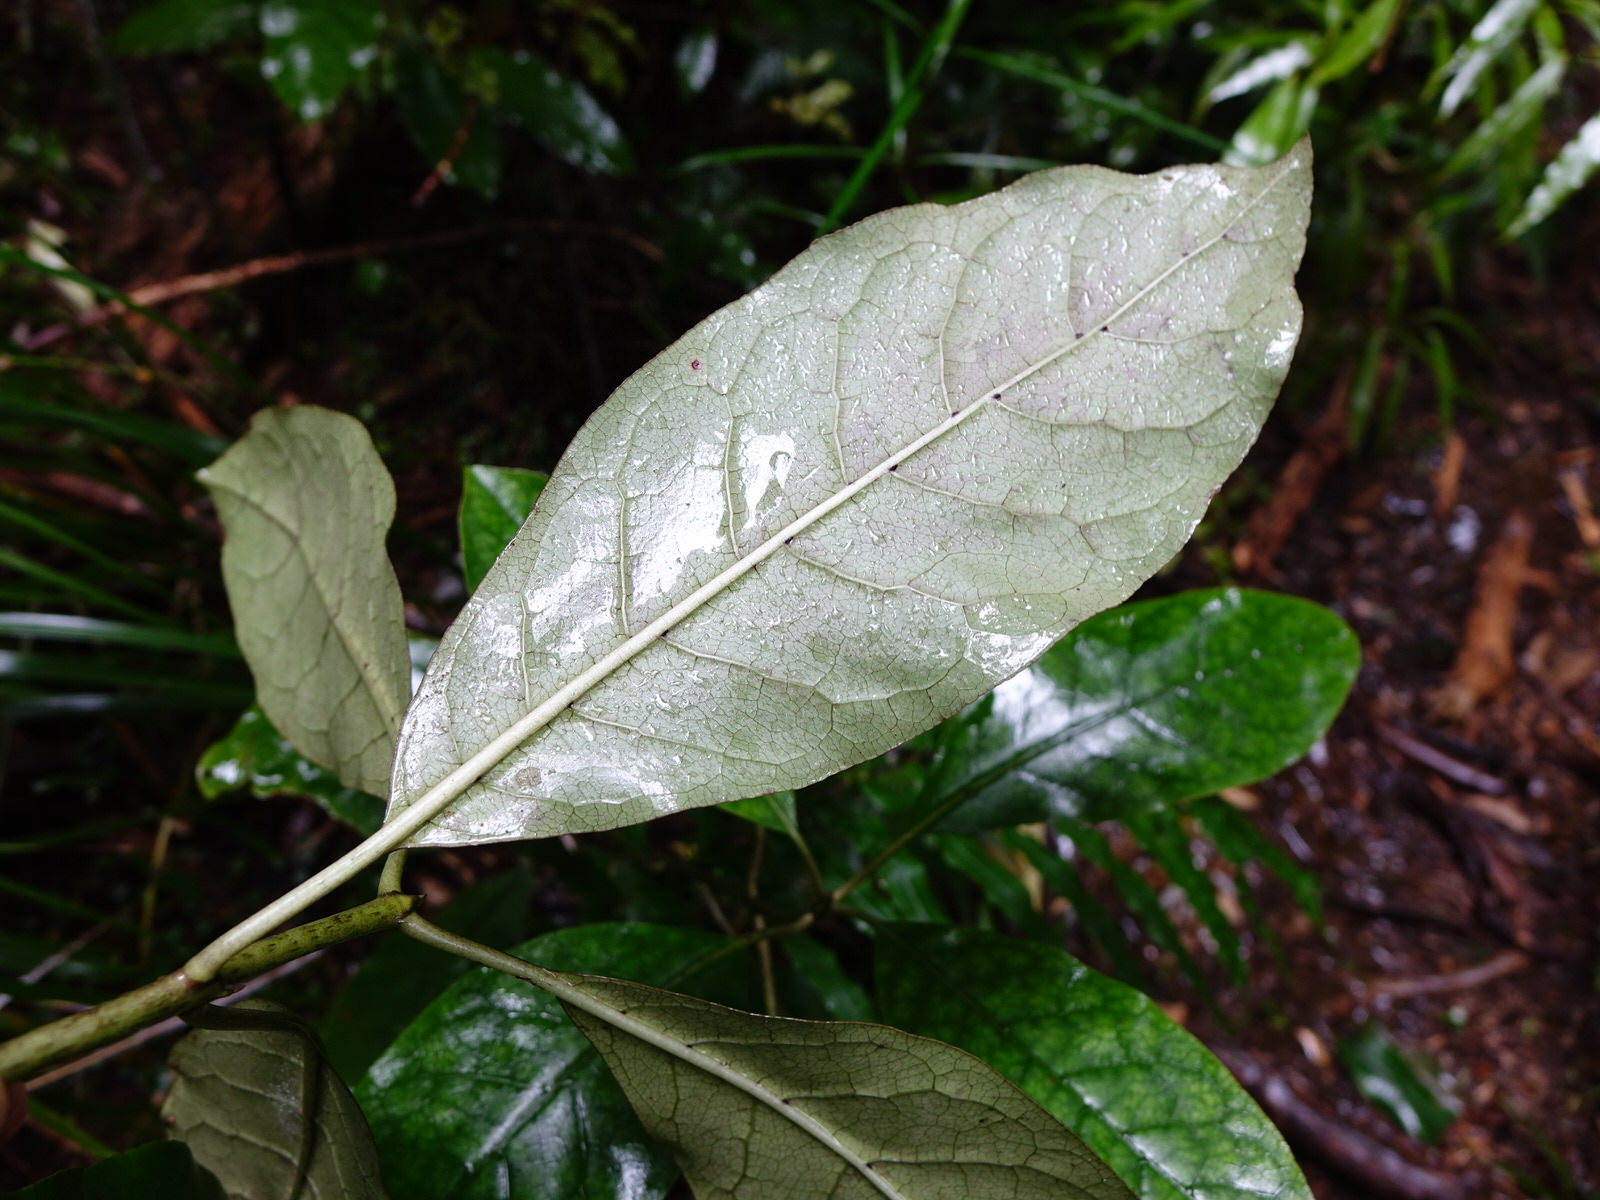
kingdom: Plantae
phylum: Tracheophyta
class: Magnoliopsida
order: Gentianales
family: Rubiaceae
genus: Coprosma
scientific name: Coprosma autumnalis
